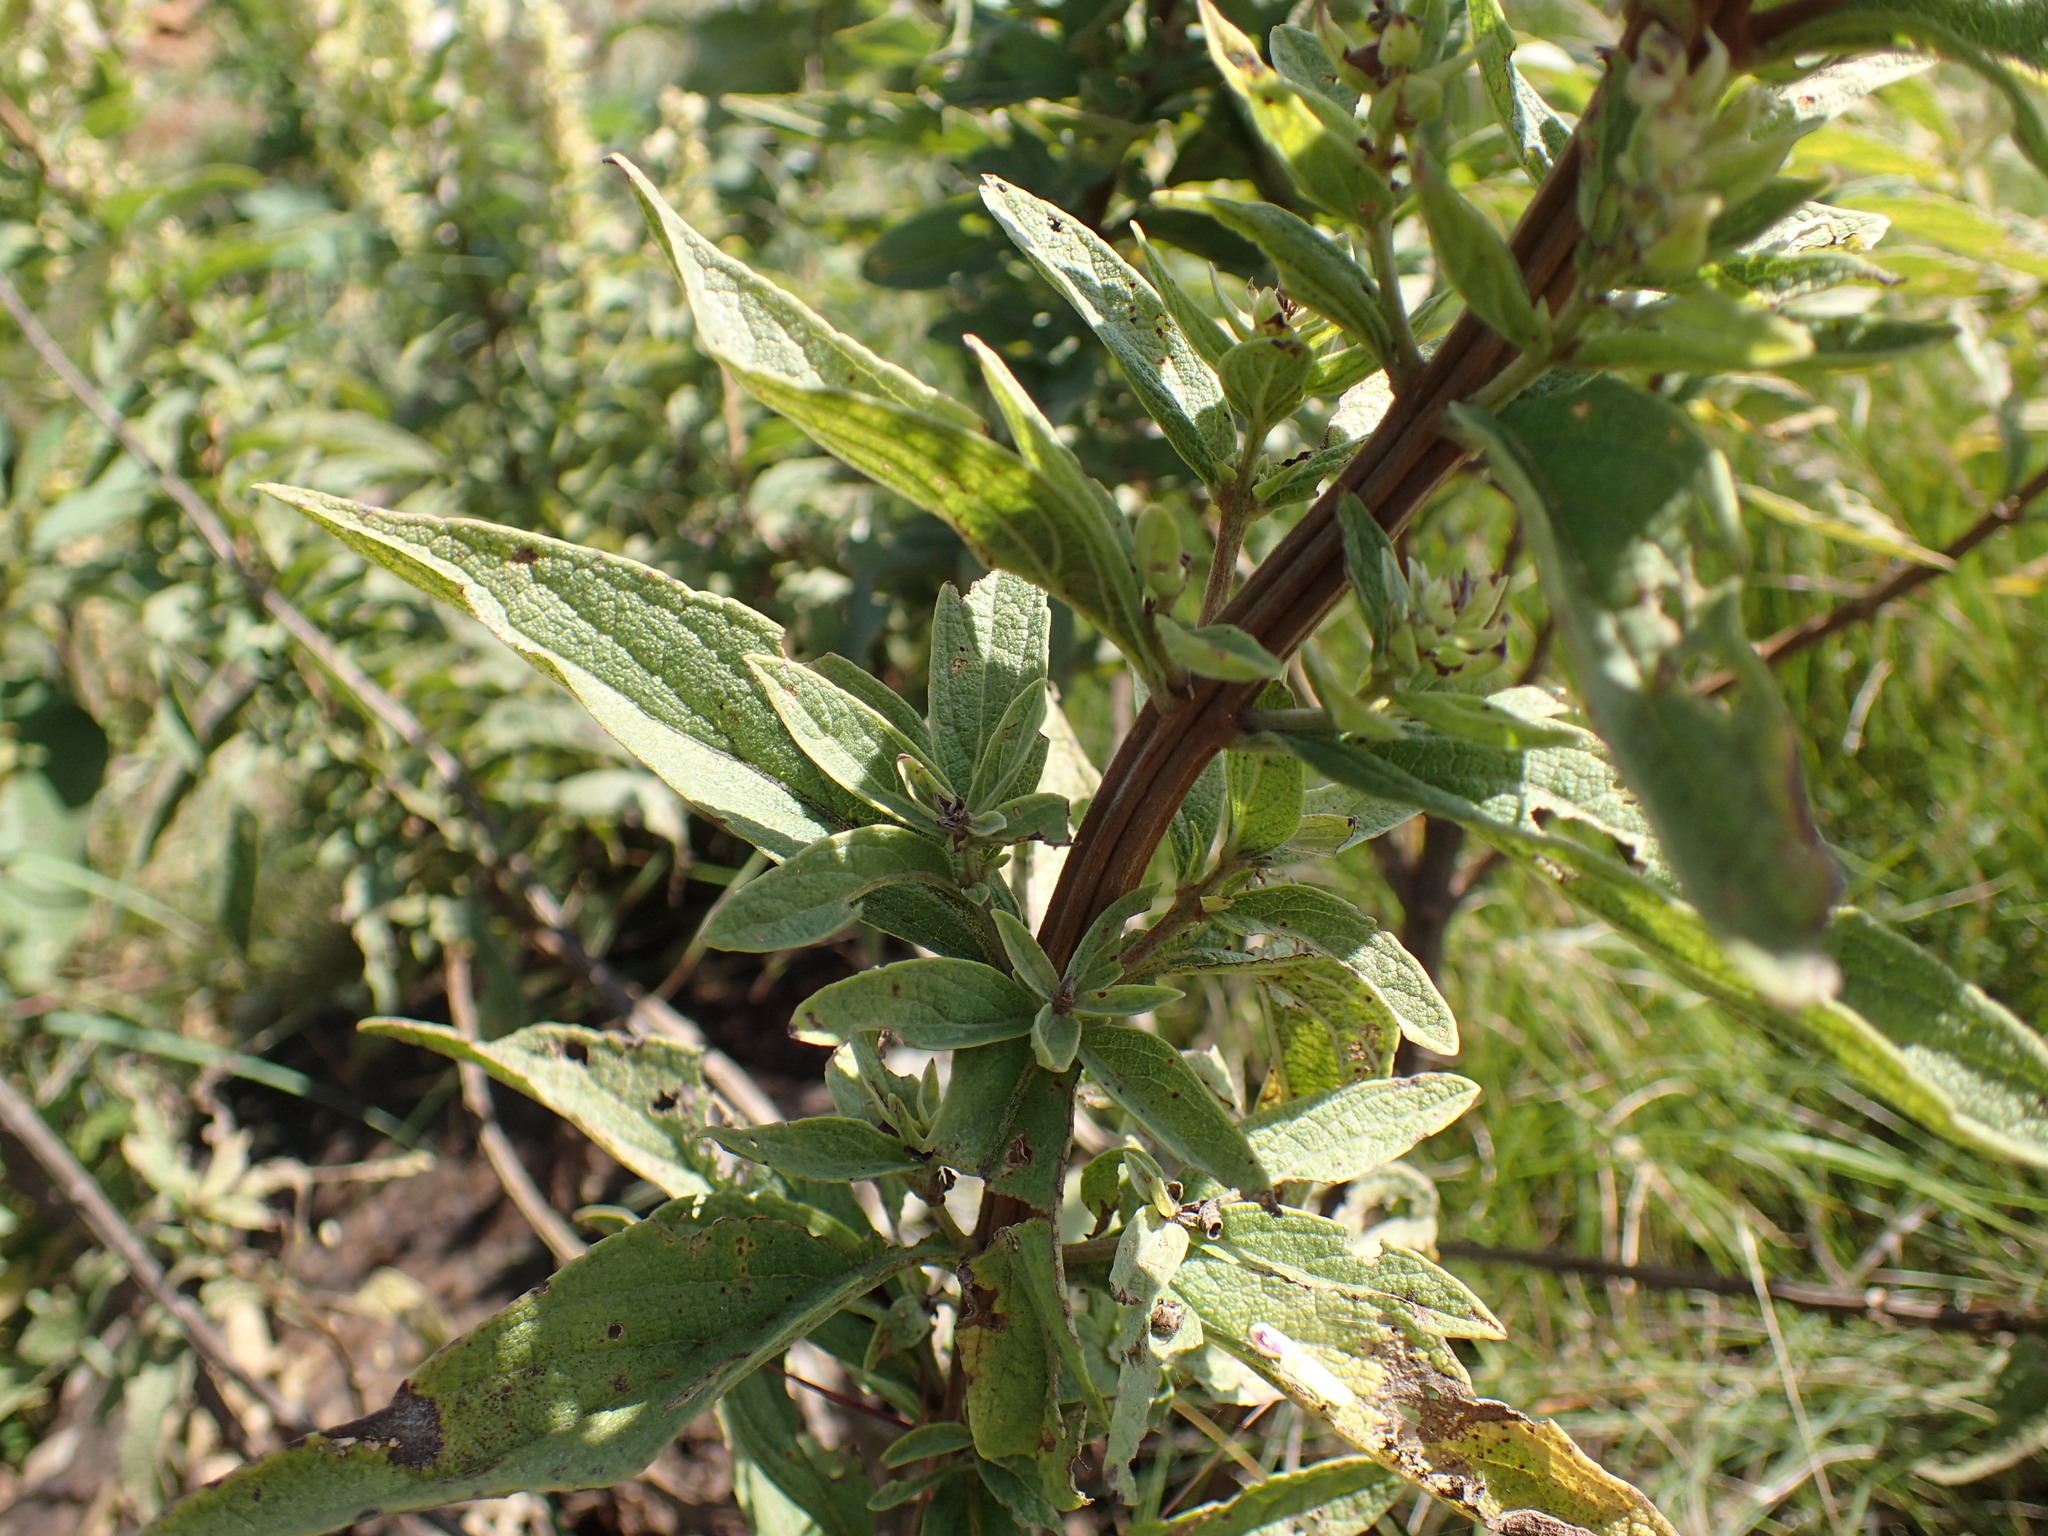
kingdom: Plantae
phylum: Tracheophyta
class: Magnoliopsida
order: Lamiales
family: Lamiaceae
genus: Coleus
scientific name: Coleus calycinus
